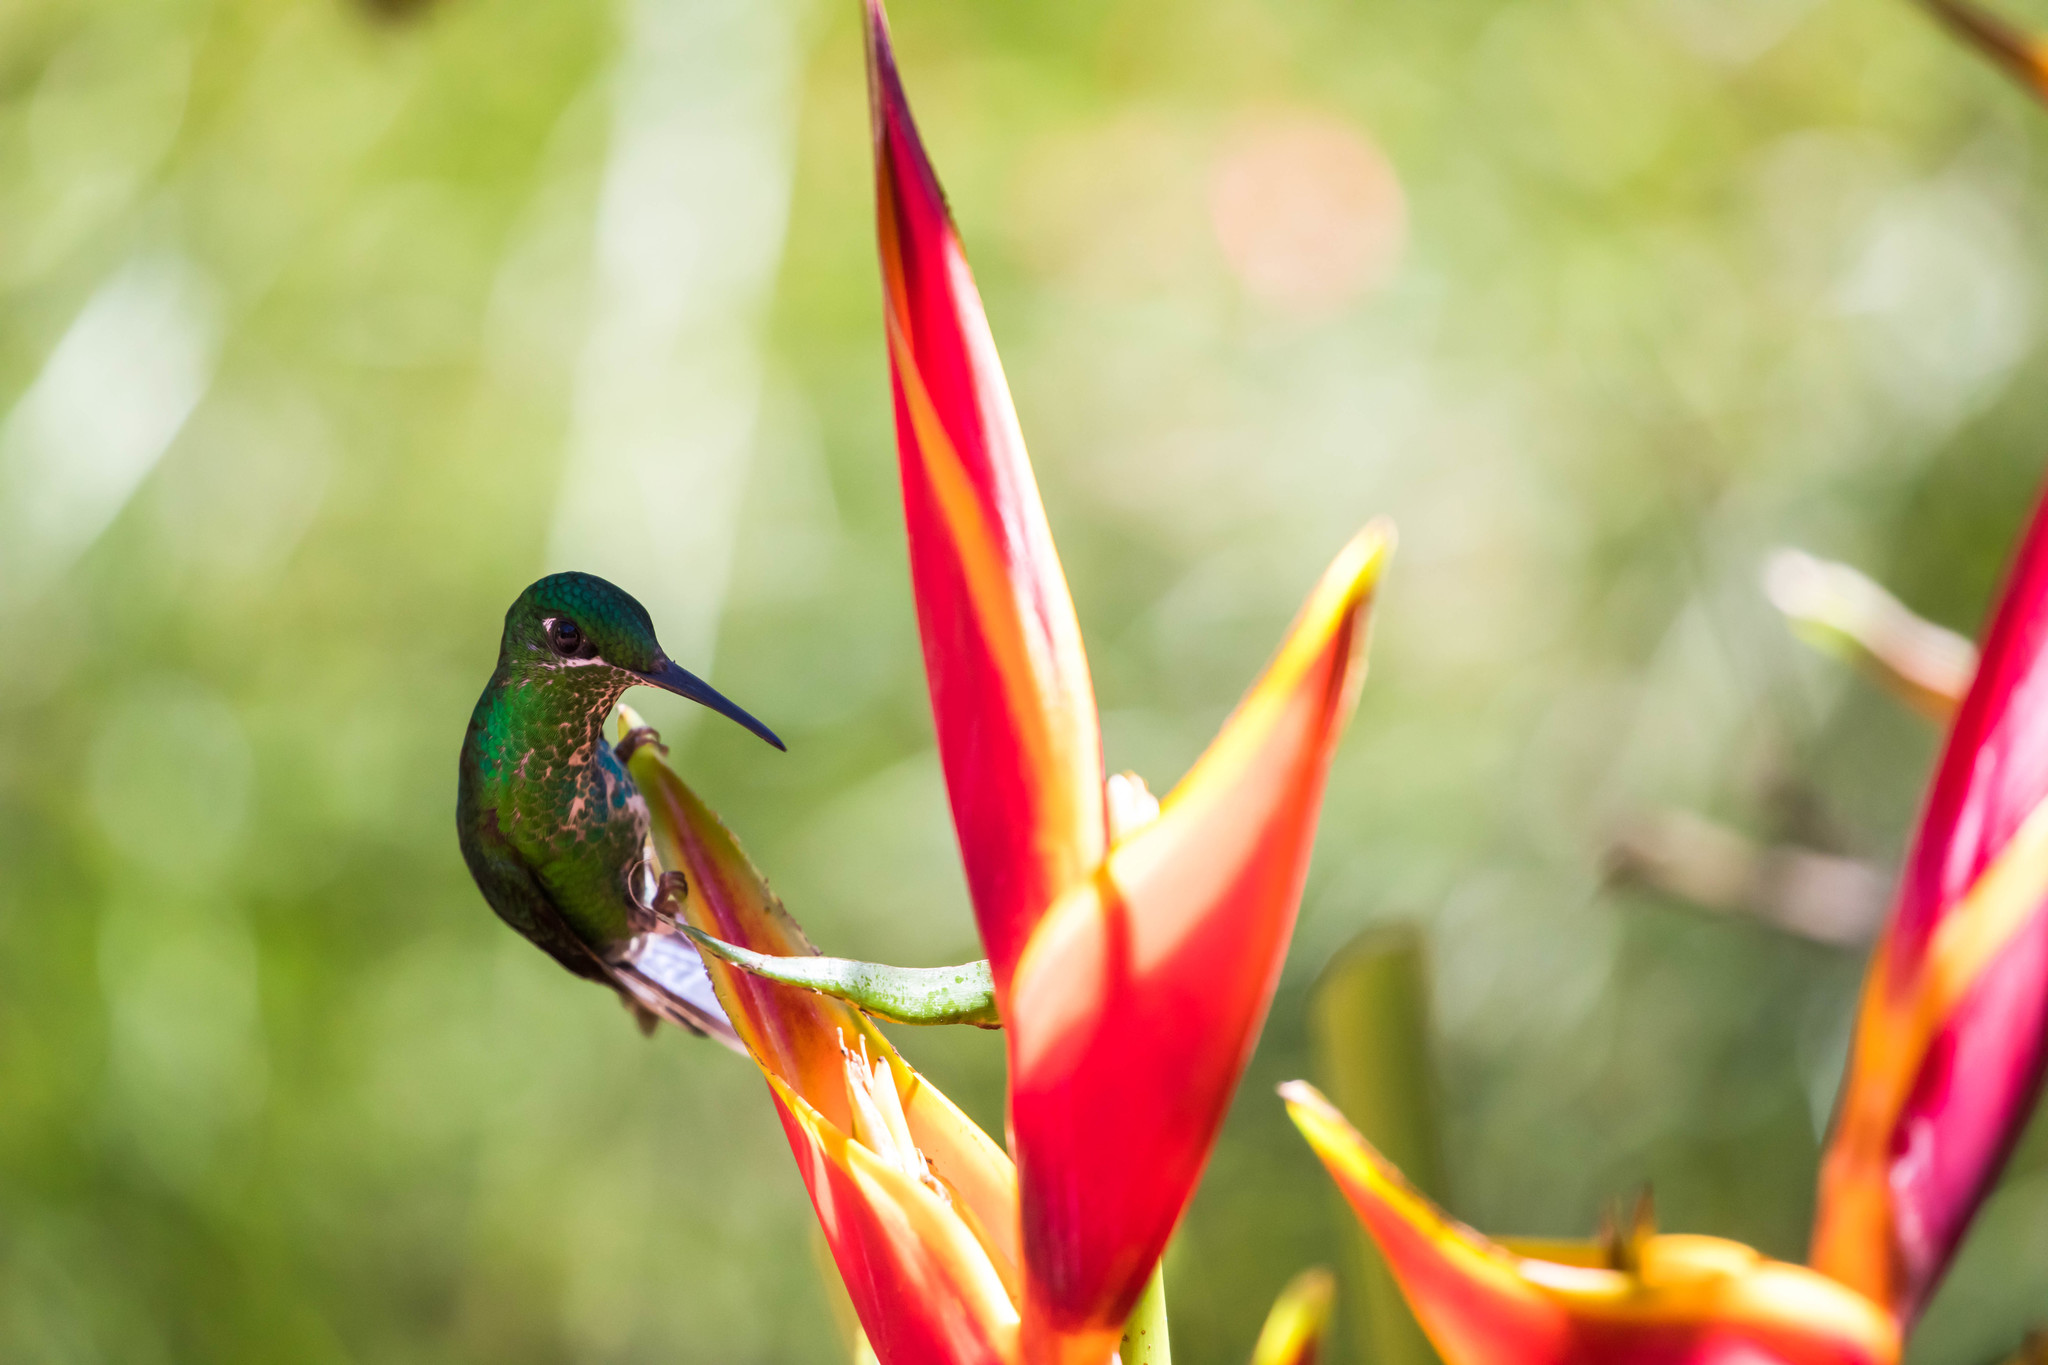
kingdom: Animalia
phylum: Chordata
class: Aves
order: Apodiformes
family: Trochilidae
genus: Heliodoxa
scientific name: Heliodoxa jacula
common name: Green-crowned brilliant
